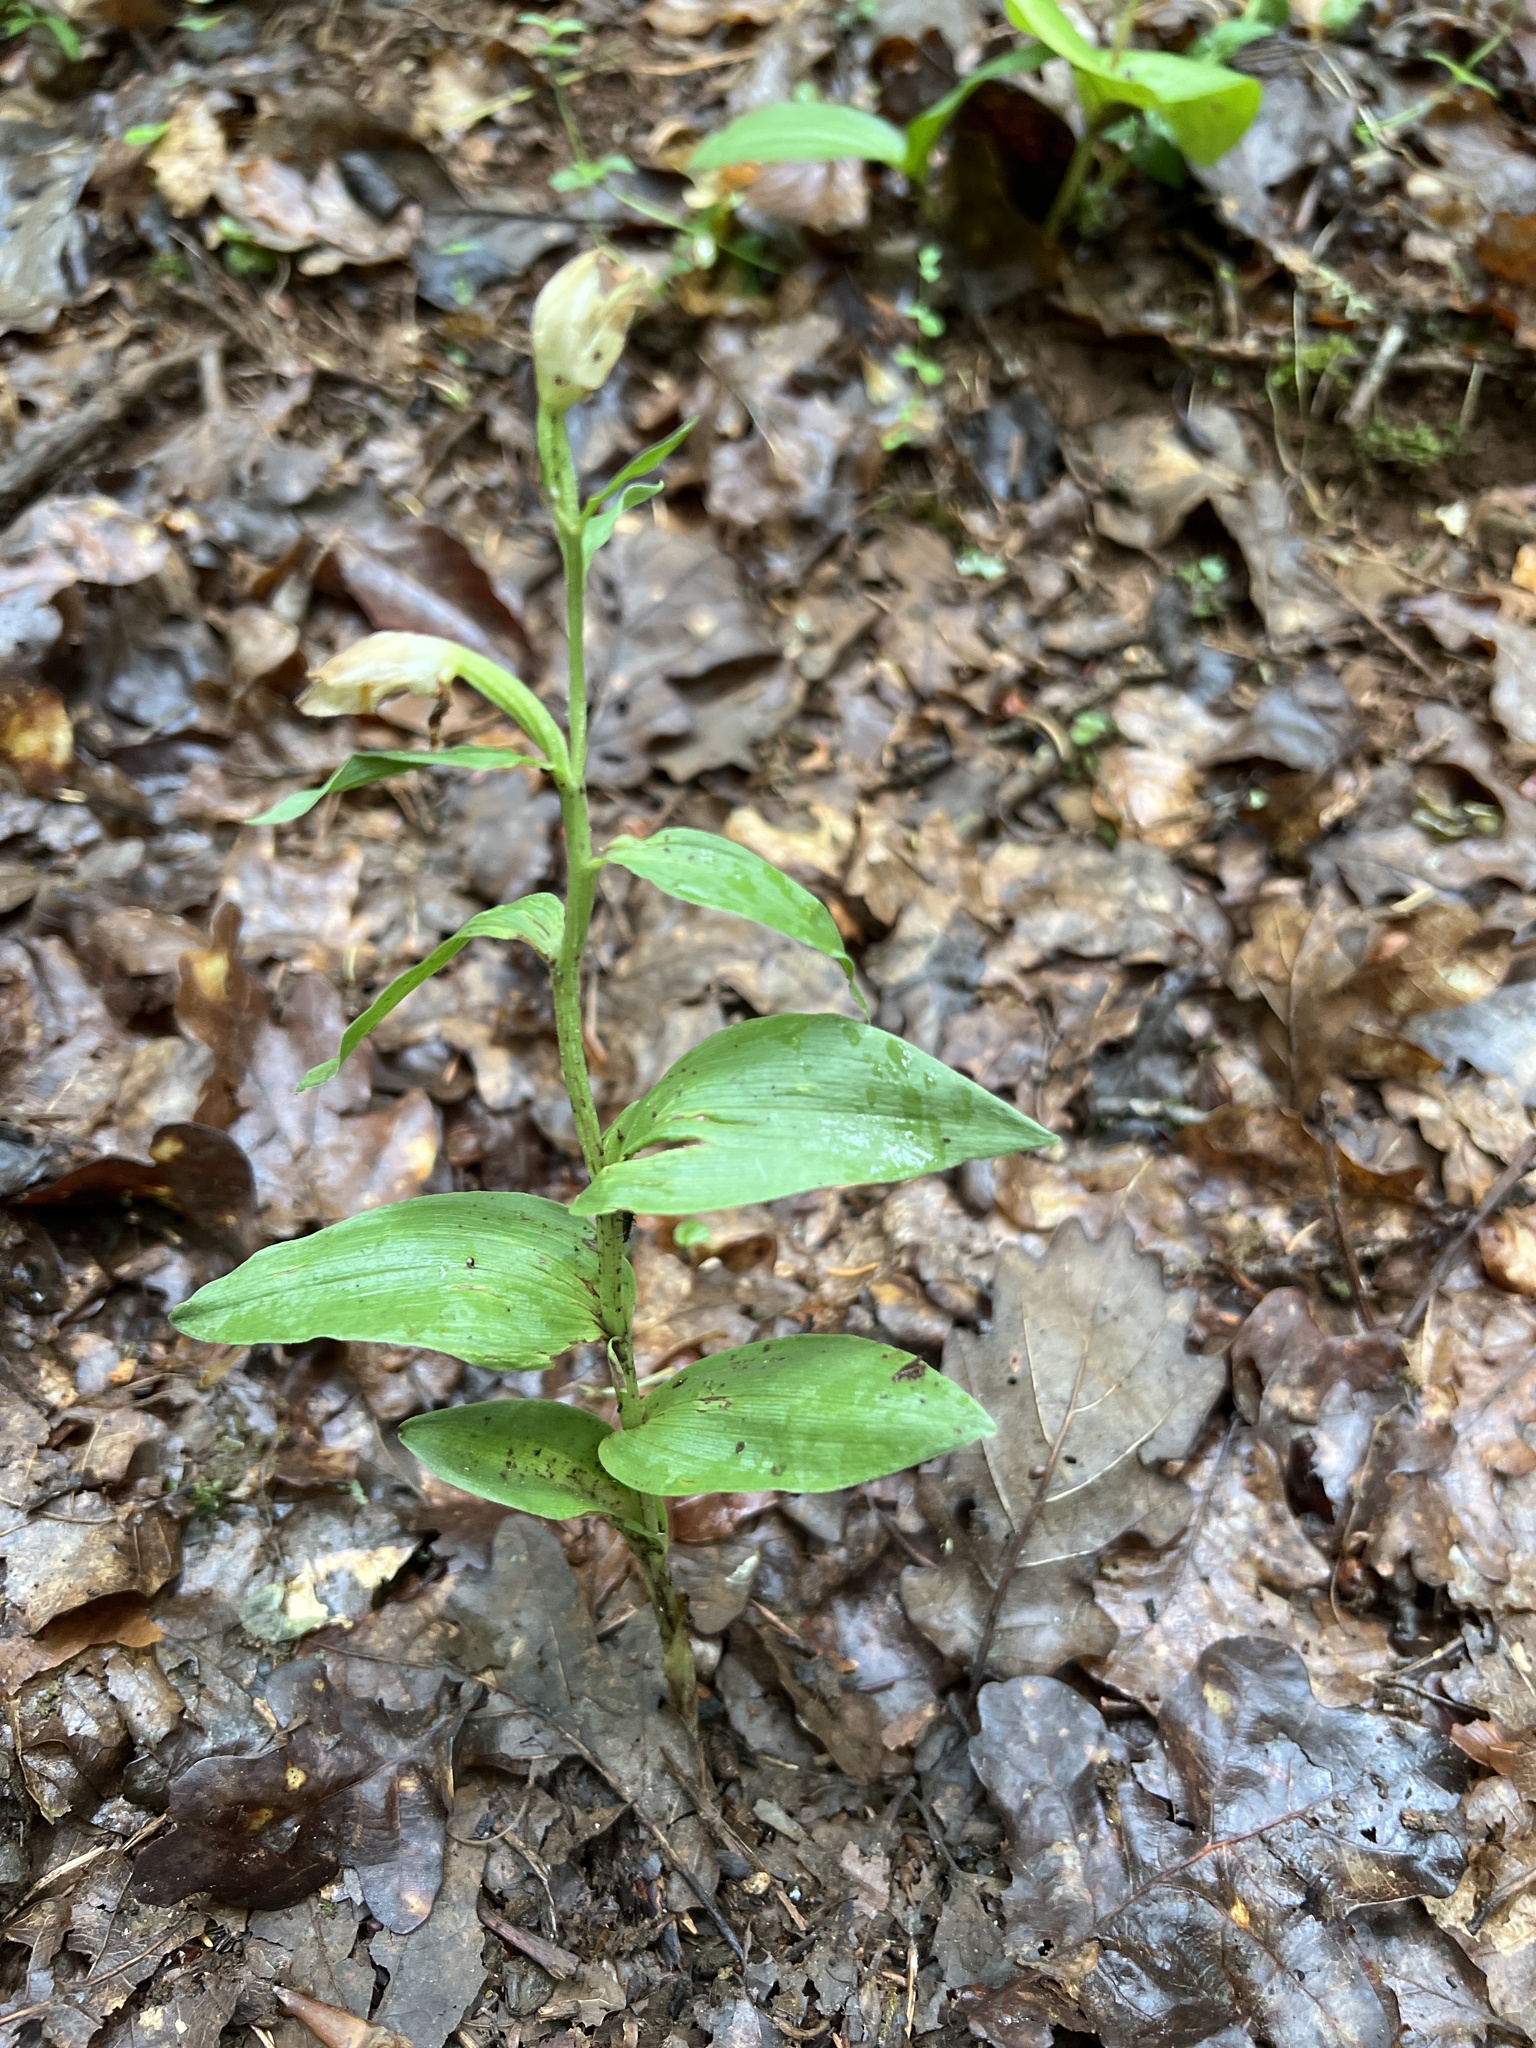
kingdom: Plantae
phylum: Tracheophyta
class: Liliopsida
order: Asparagales
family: Orchidaceae
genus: Cephalanthera
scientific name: Cephalanthera damasonium
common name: White helleborine
